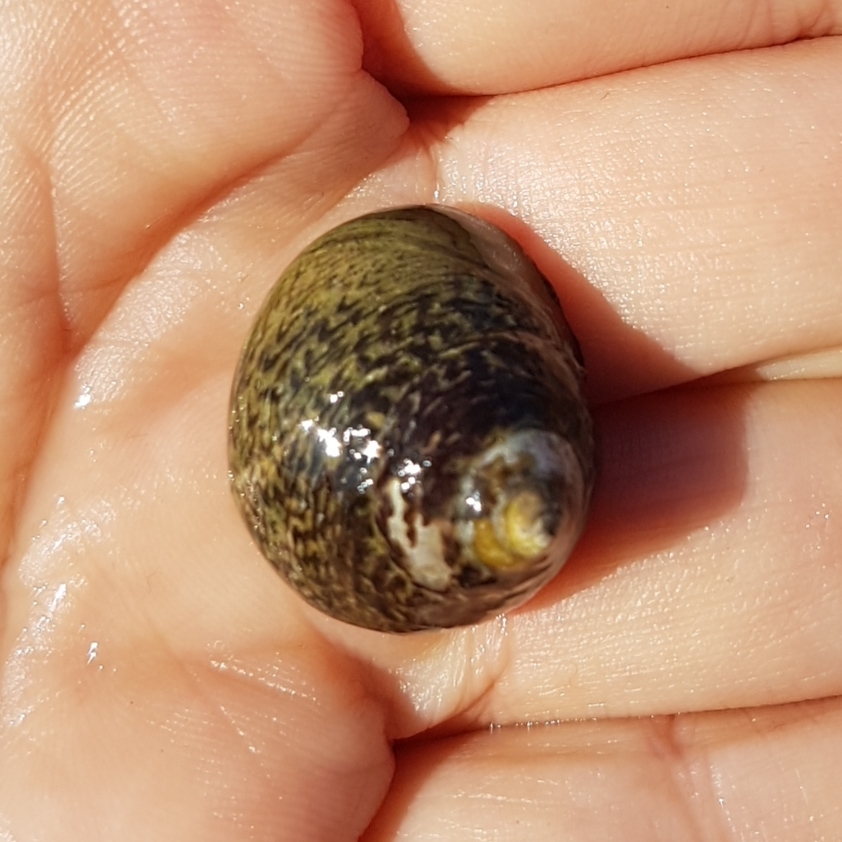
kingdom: Animalia
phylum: Mollusca
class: Gastropoda
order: Trochida
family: Trochidae
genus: Phorcus
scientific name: Phorcus lineatus
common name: Toothed top shell
